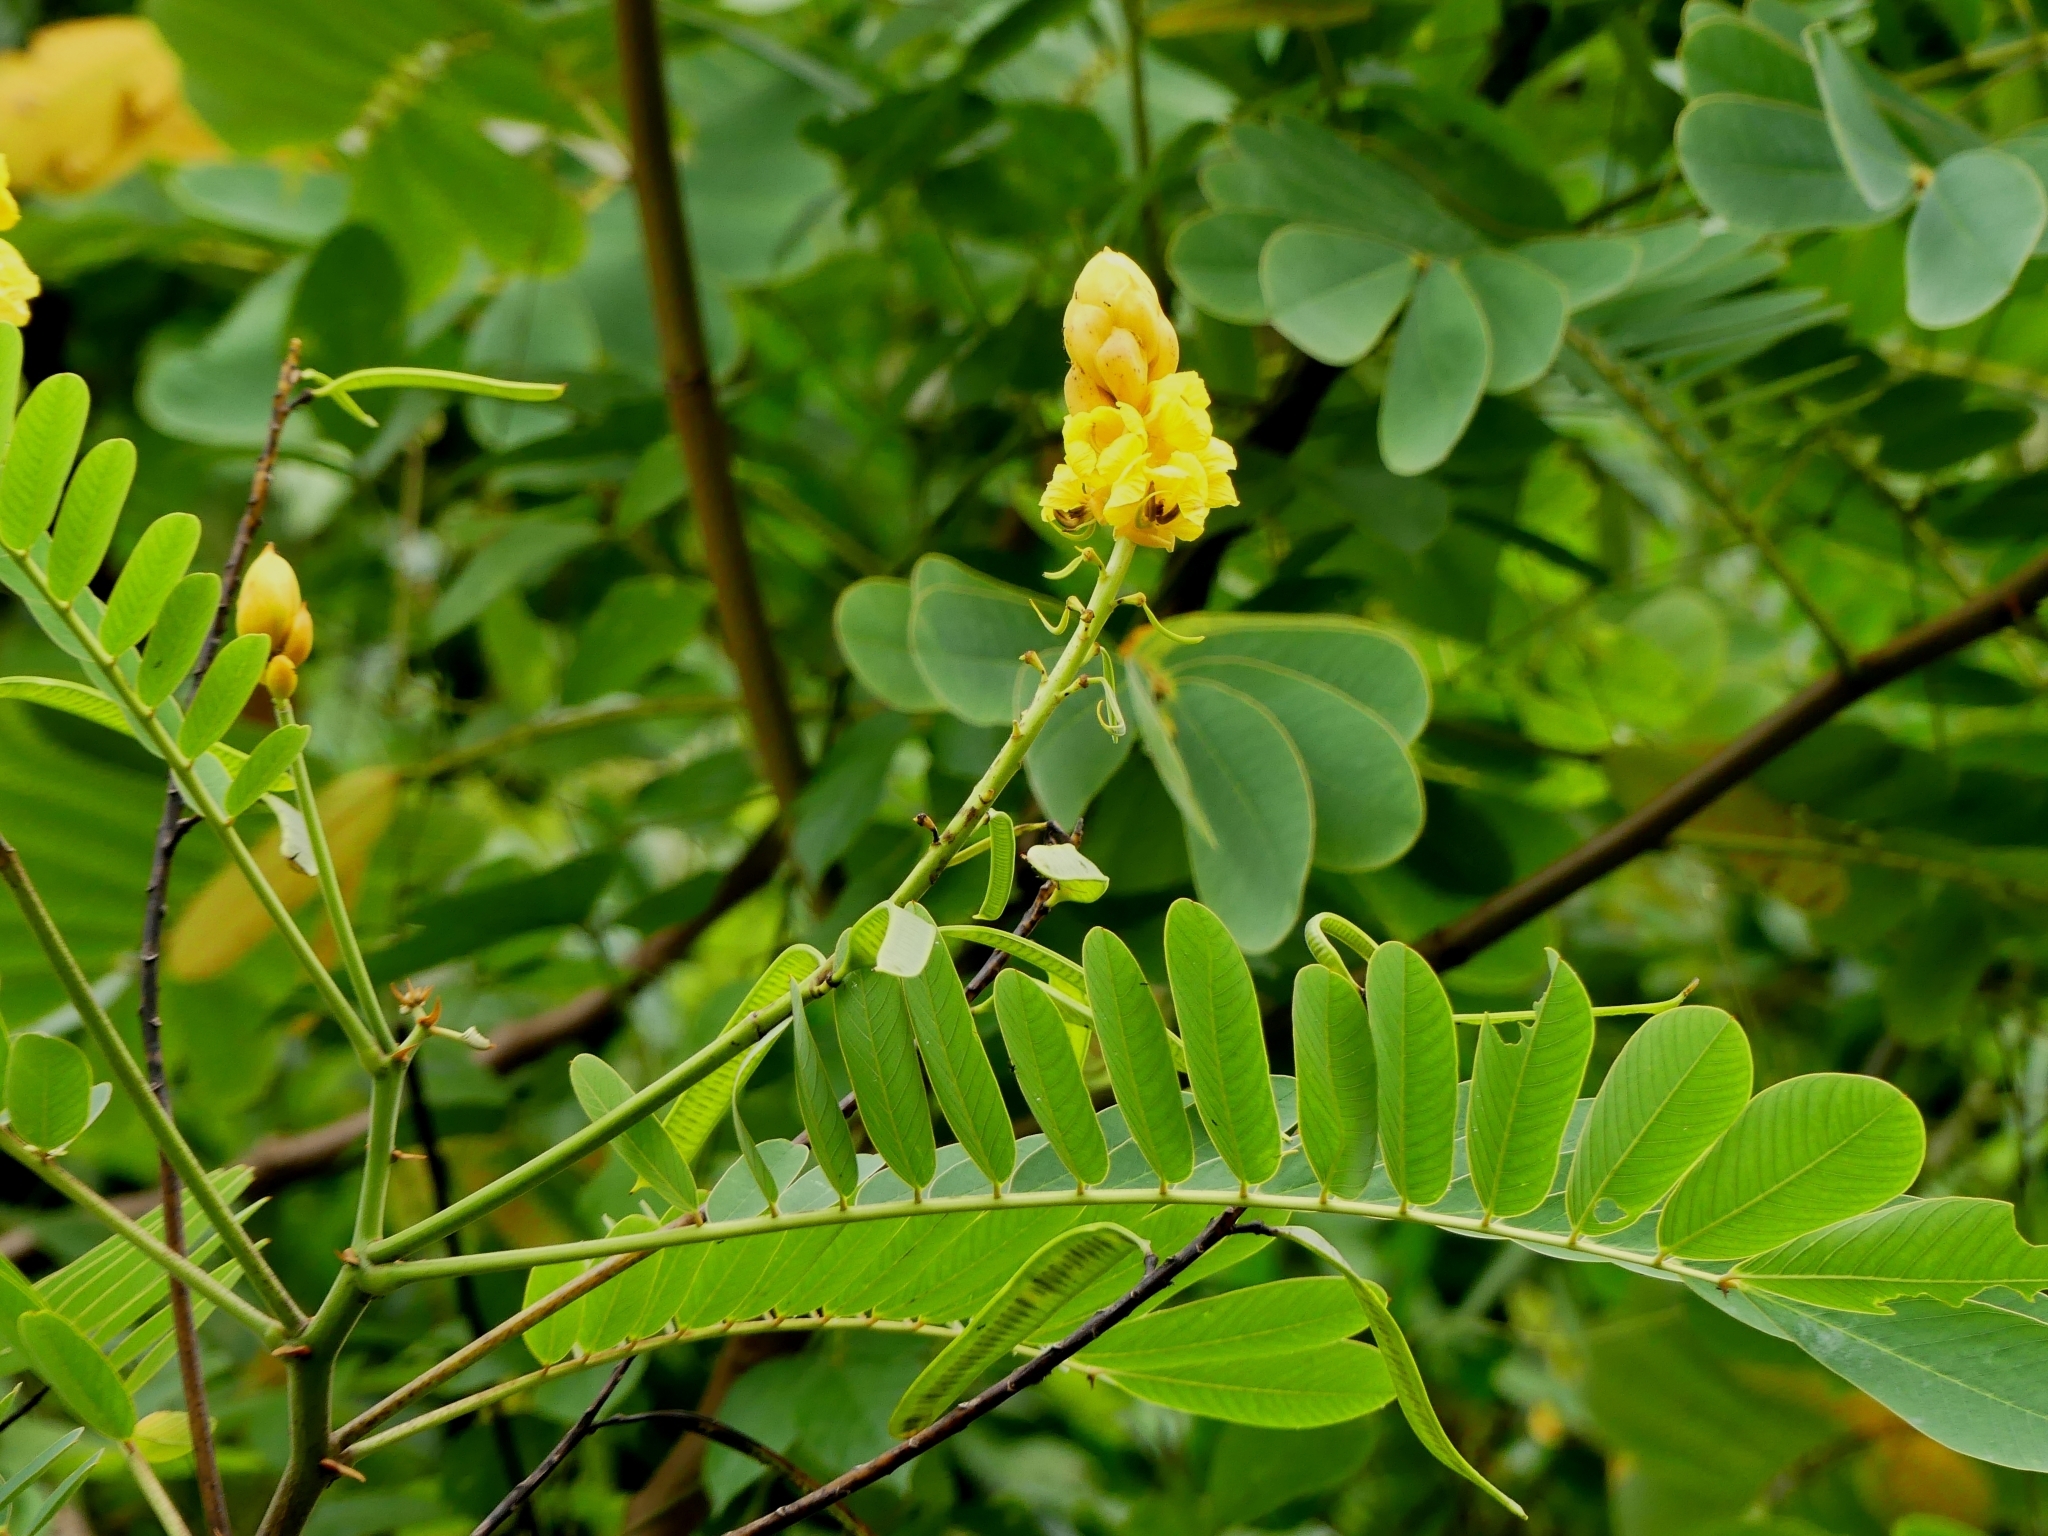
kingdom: Plantae
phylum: Tracheophyta
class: Magnoliopsida
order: Fabales
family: Fabaceae
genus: Senna
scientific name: Senna reticulata
